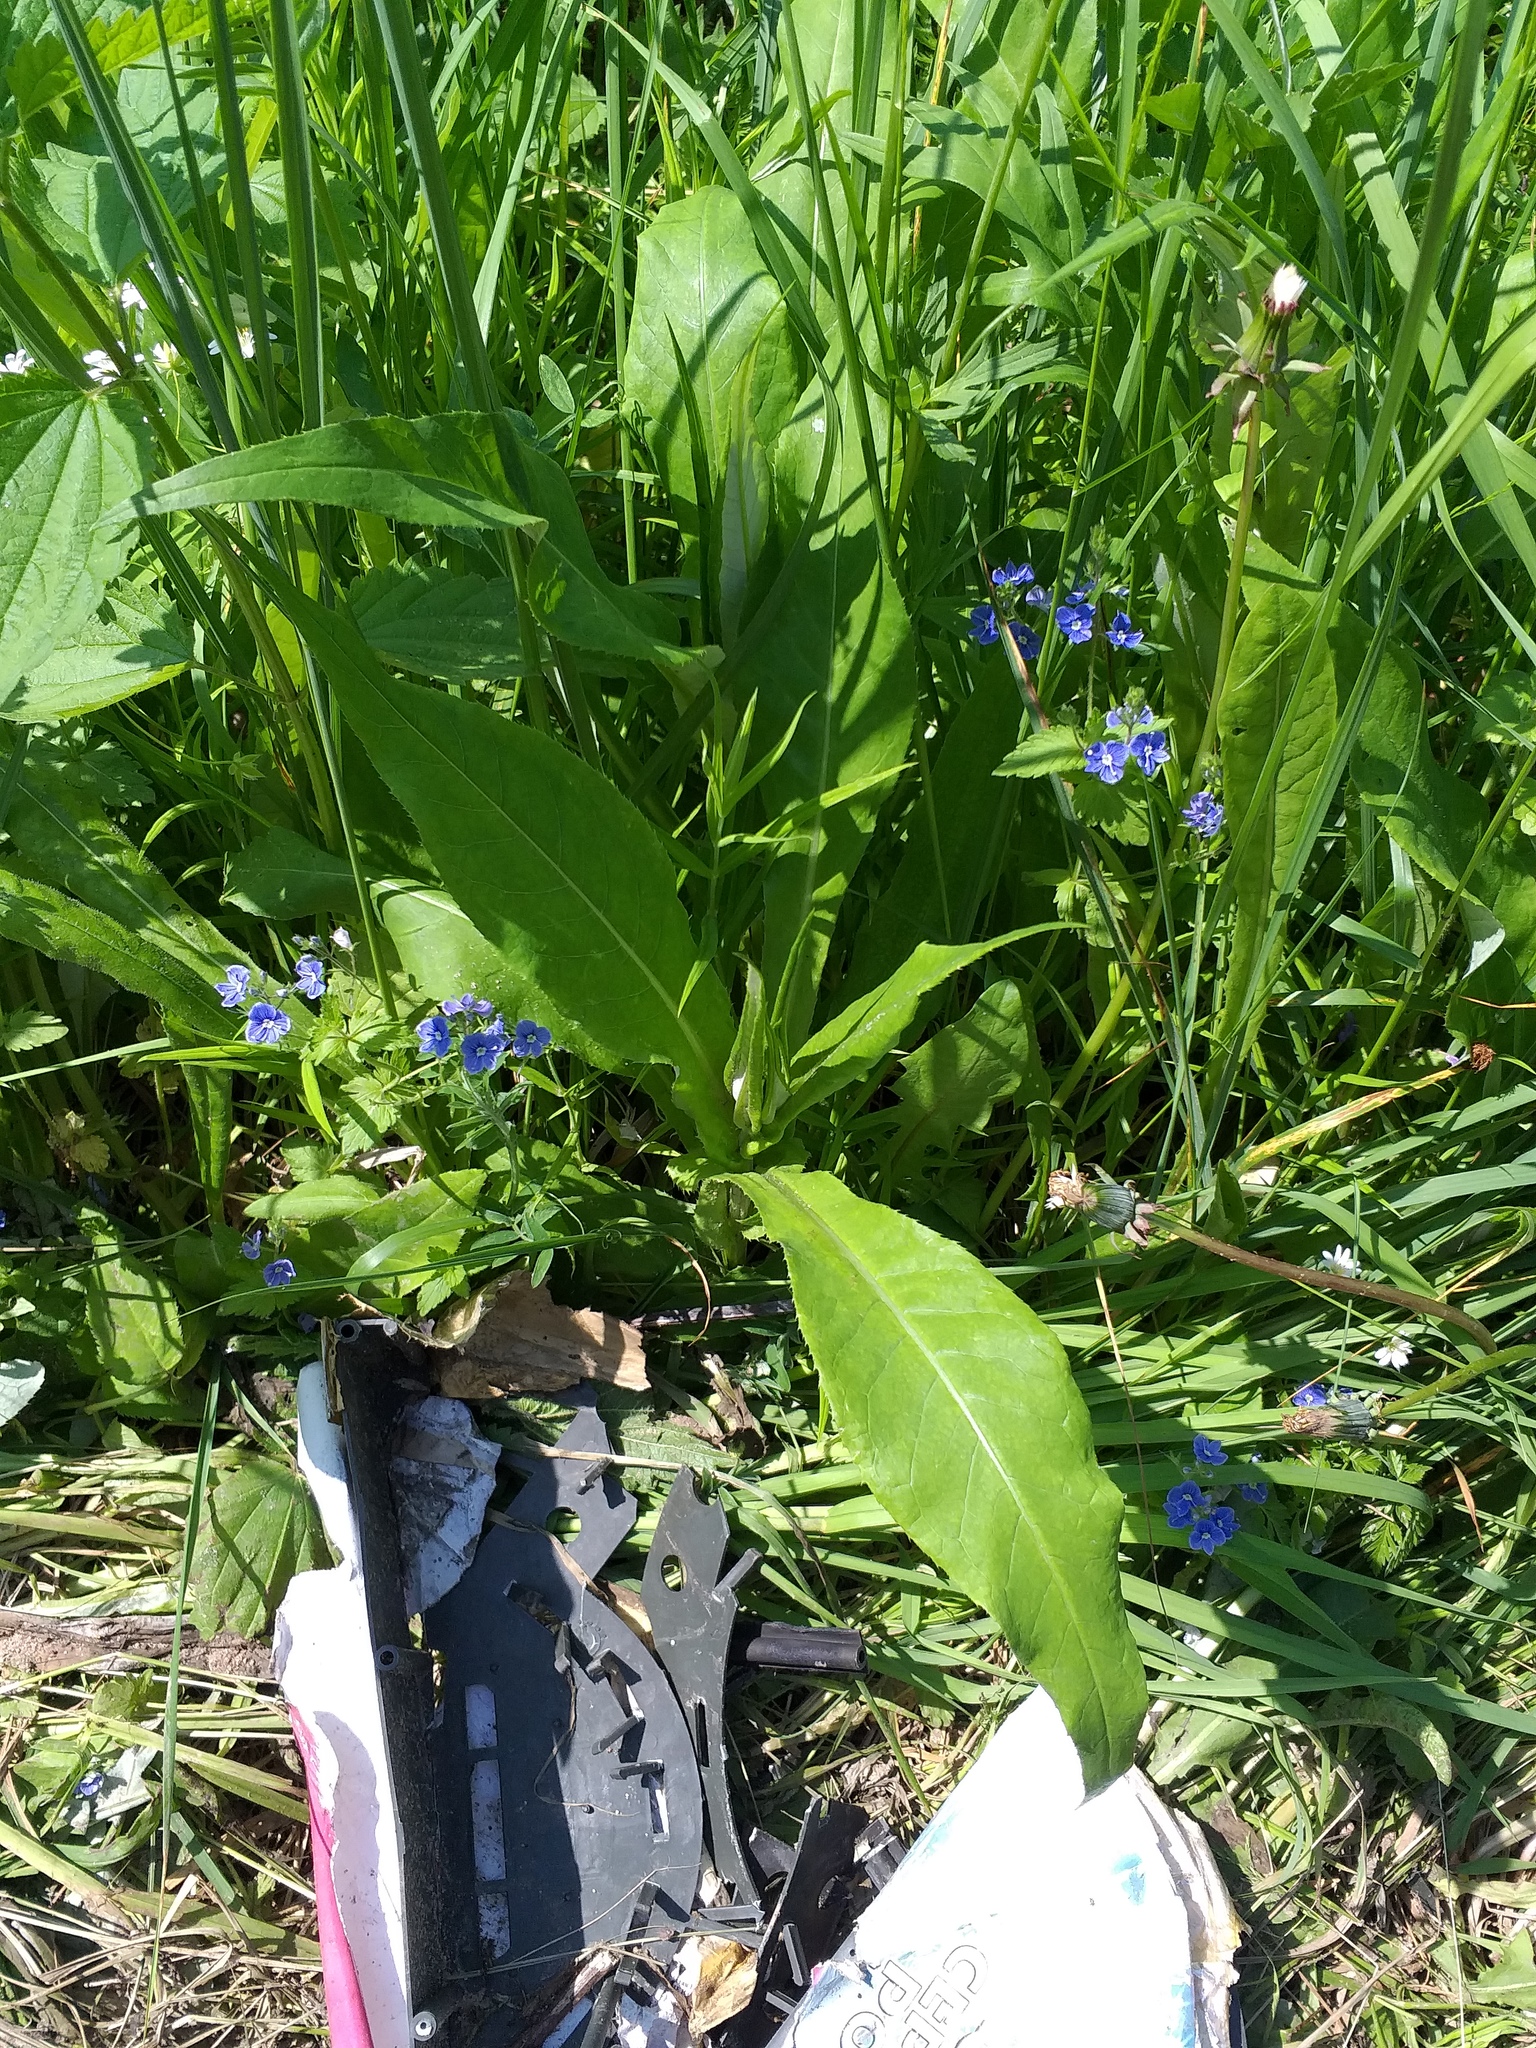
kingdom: Plantae
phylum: Tracheophyta
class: Magnoliopsida
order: Asterales
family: Asteraceae
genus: Cirsium
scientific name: Cirsium heterophyllum
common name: Melancholy thistle
